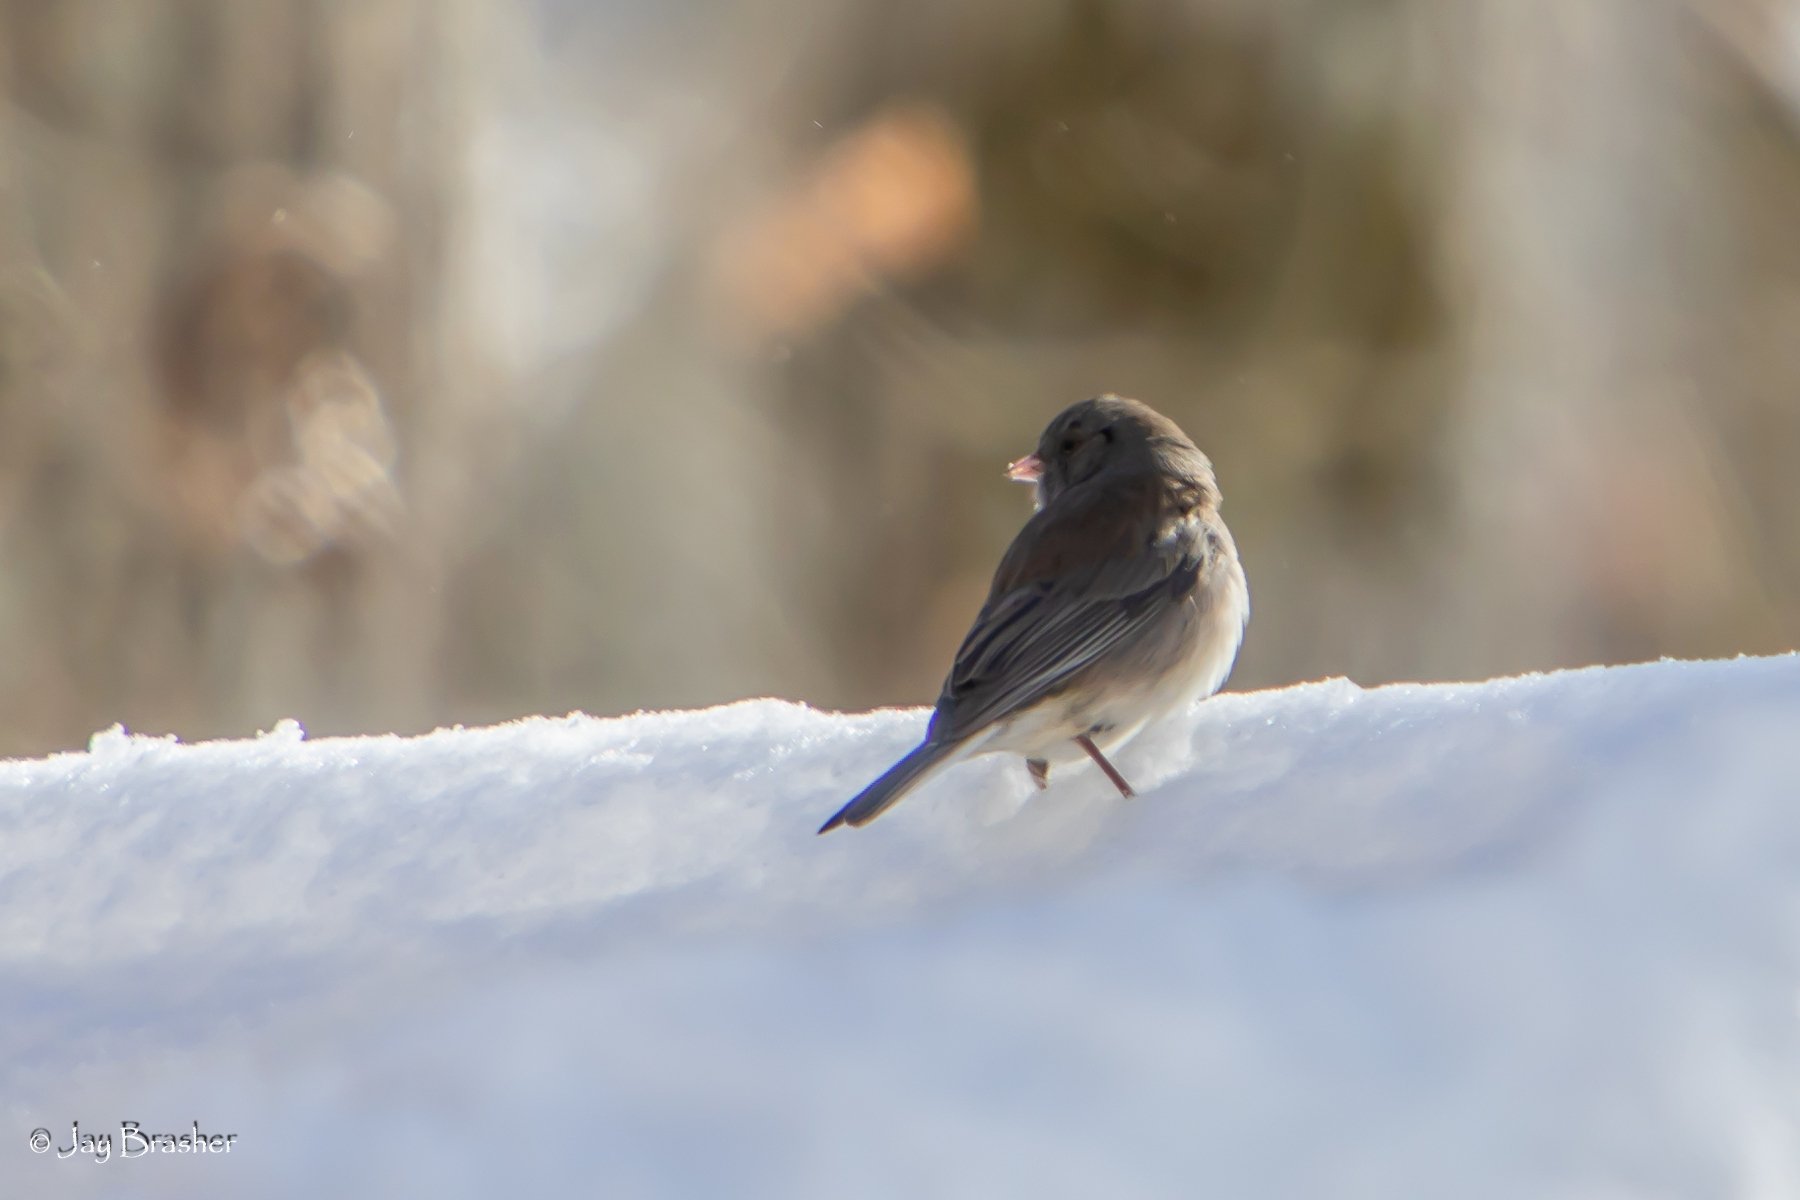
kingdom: Animalia
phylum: Chordata
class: Aves
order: Passeriformes
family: Passerellidae
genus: Junco
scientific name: Junco hyemalis
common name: Dark-eyed junco
